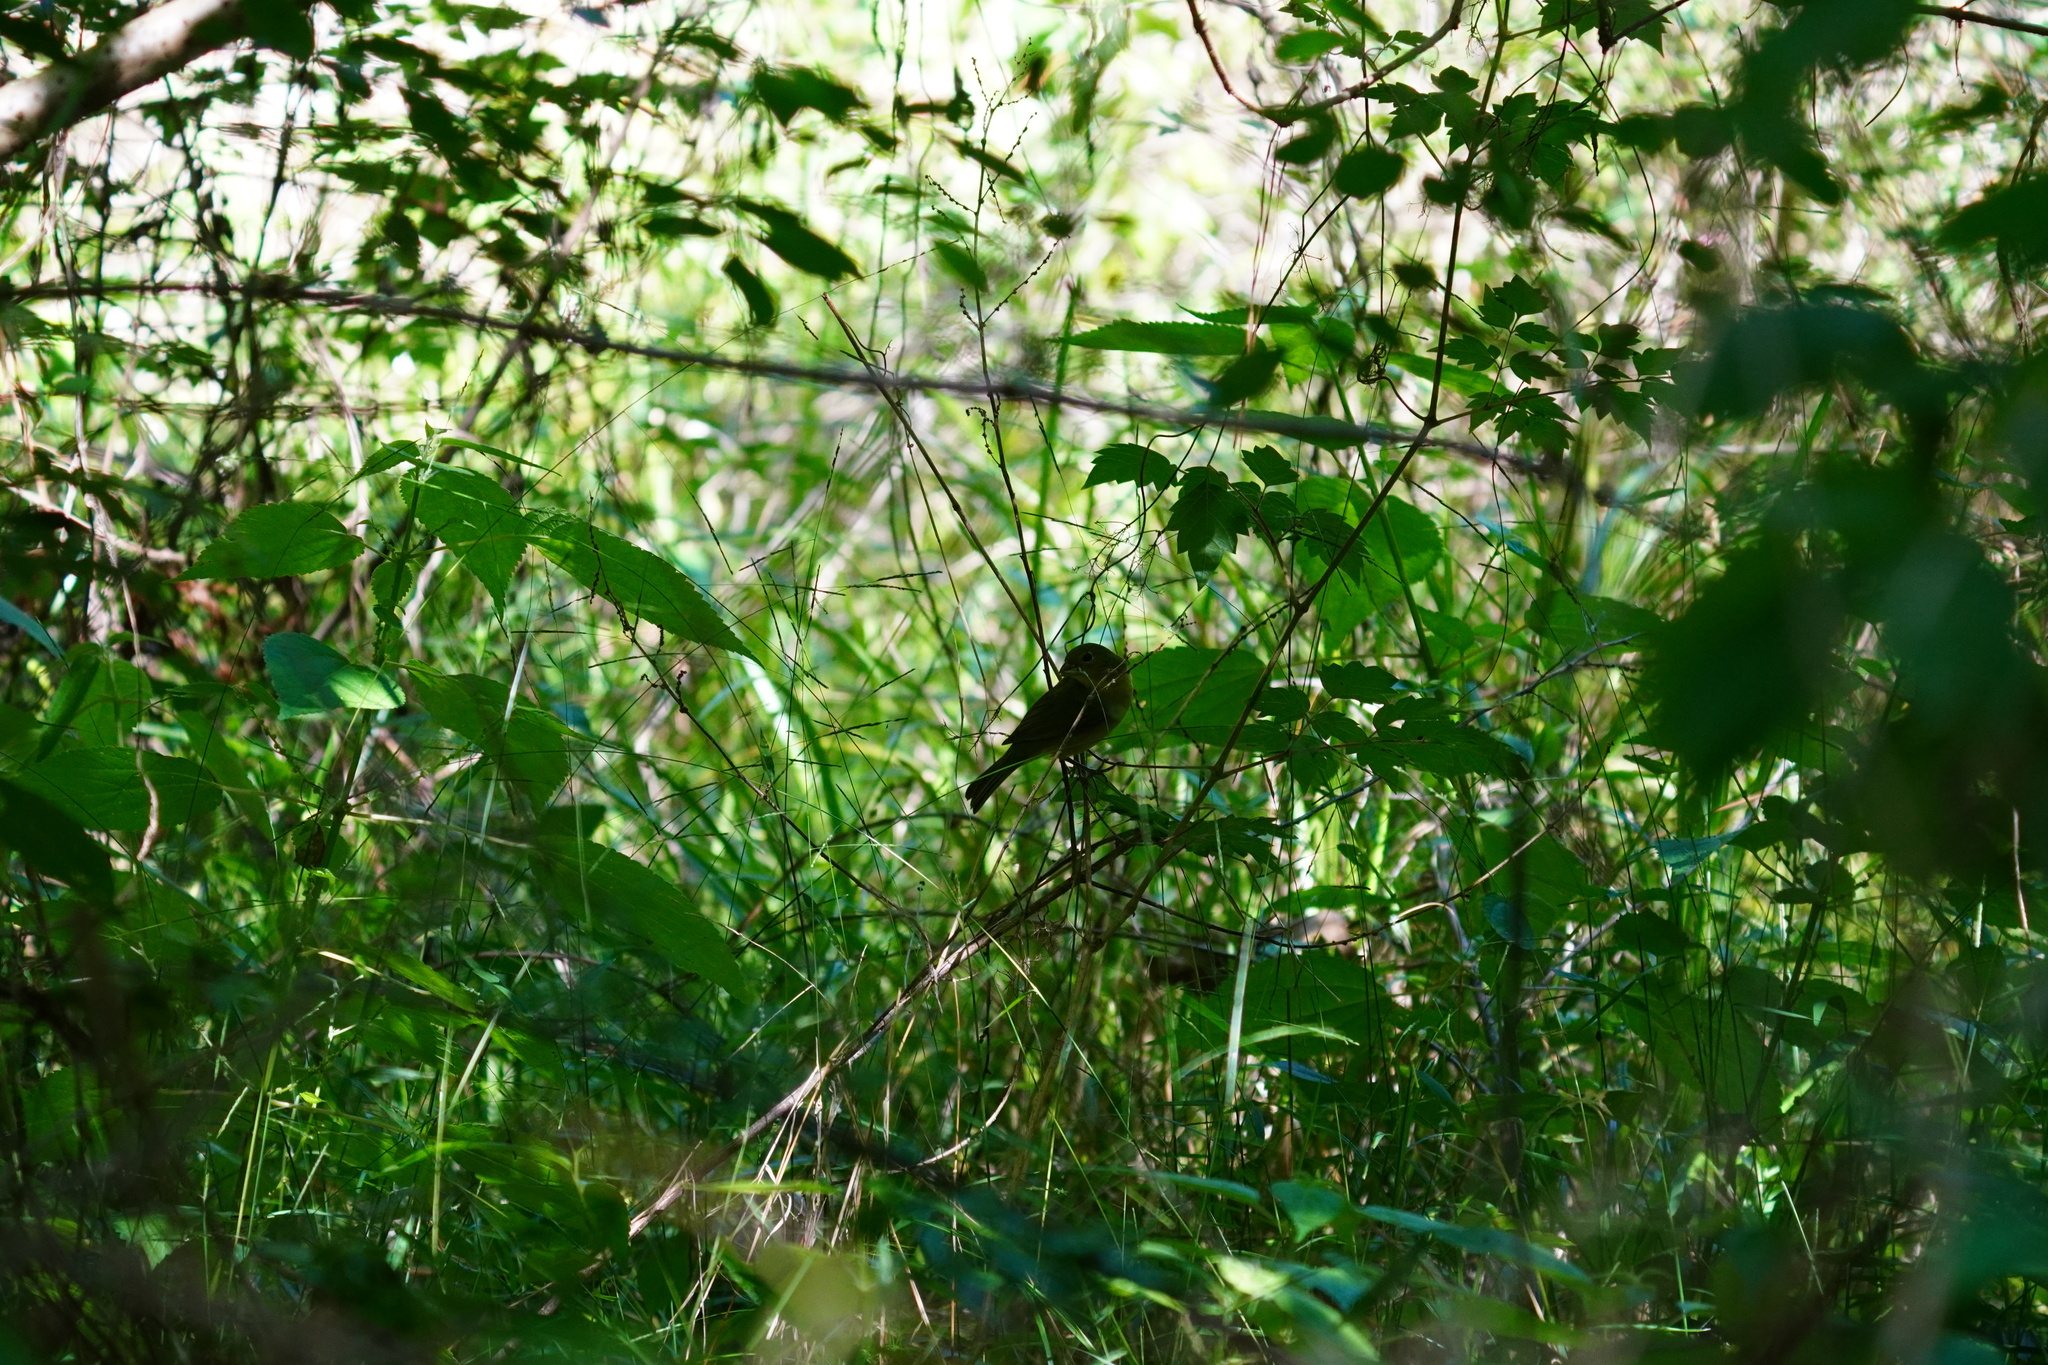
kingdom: Animalia
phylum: Chordata
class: Aves
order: Passeriformes
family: Cardinalidae
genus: Passerina
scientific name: Passerina ciris
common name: Painted bunting
